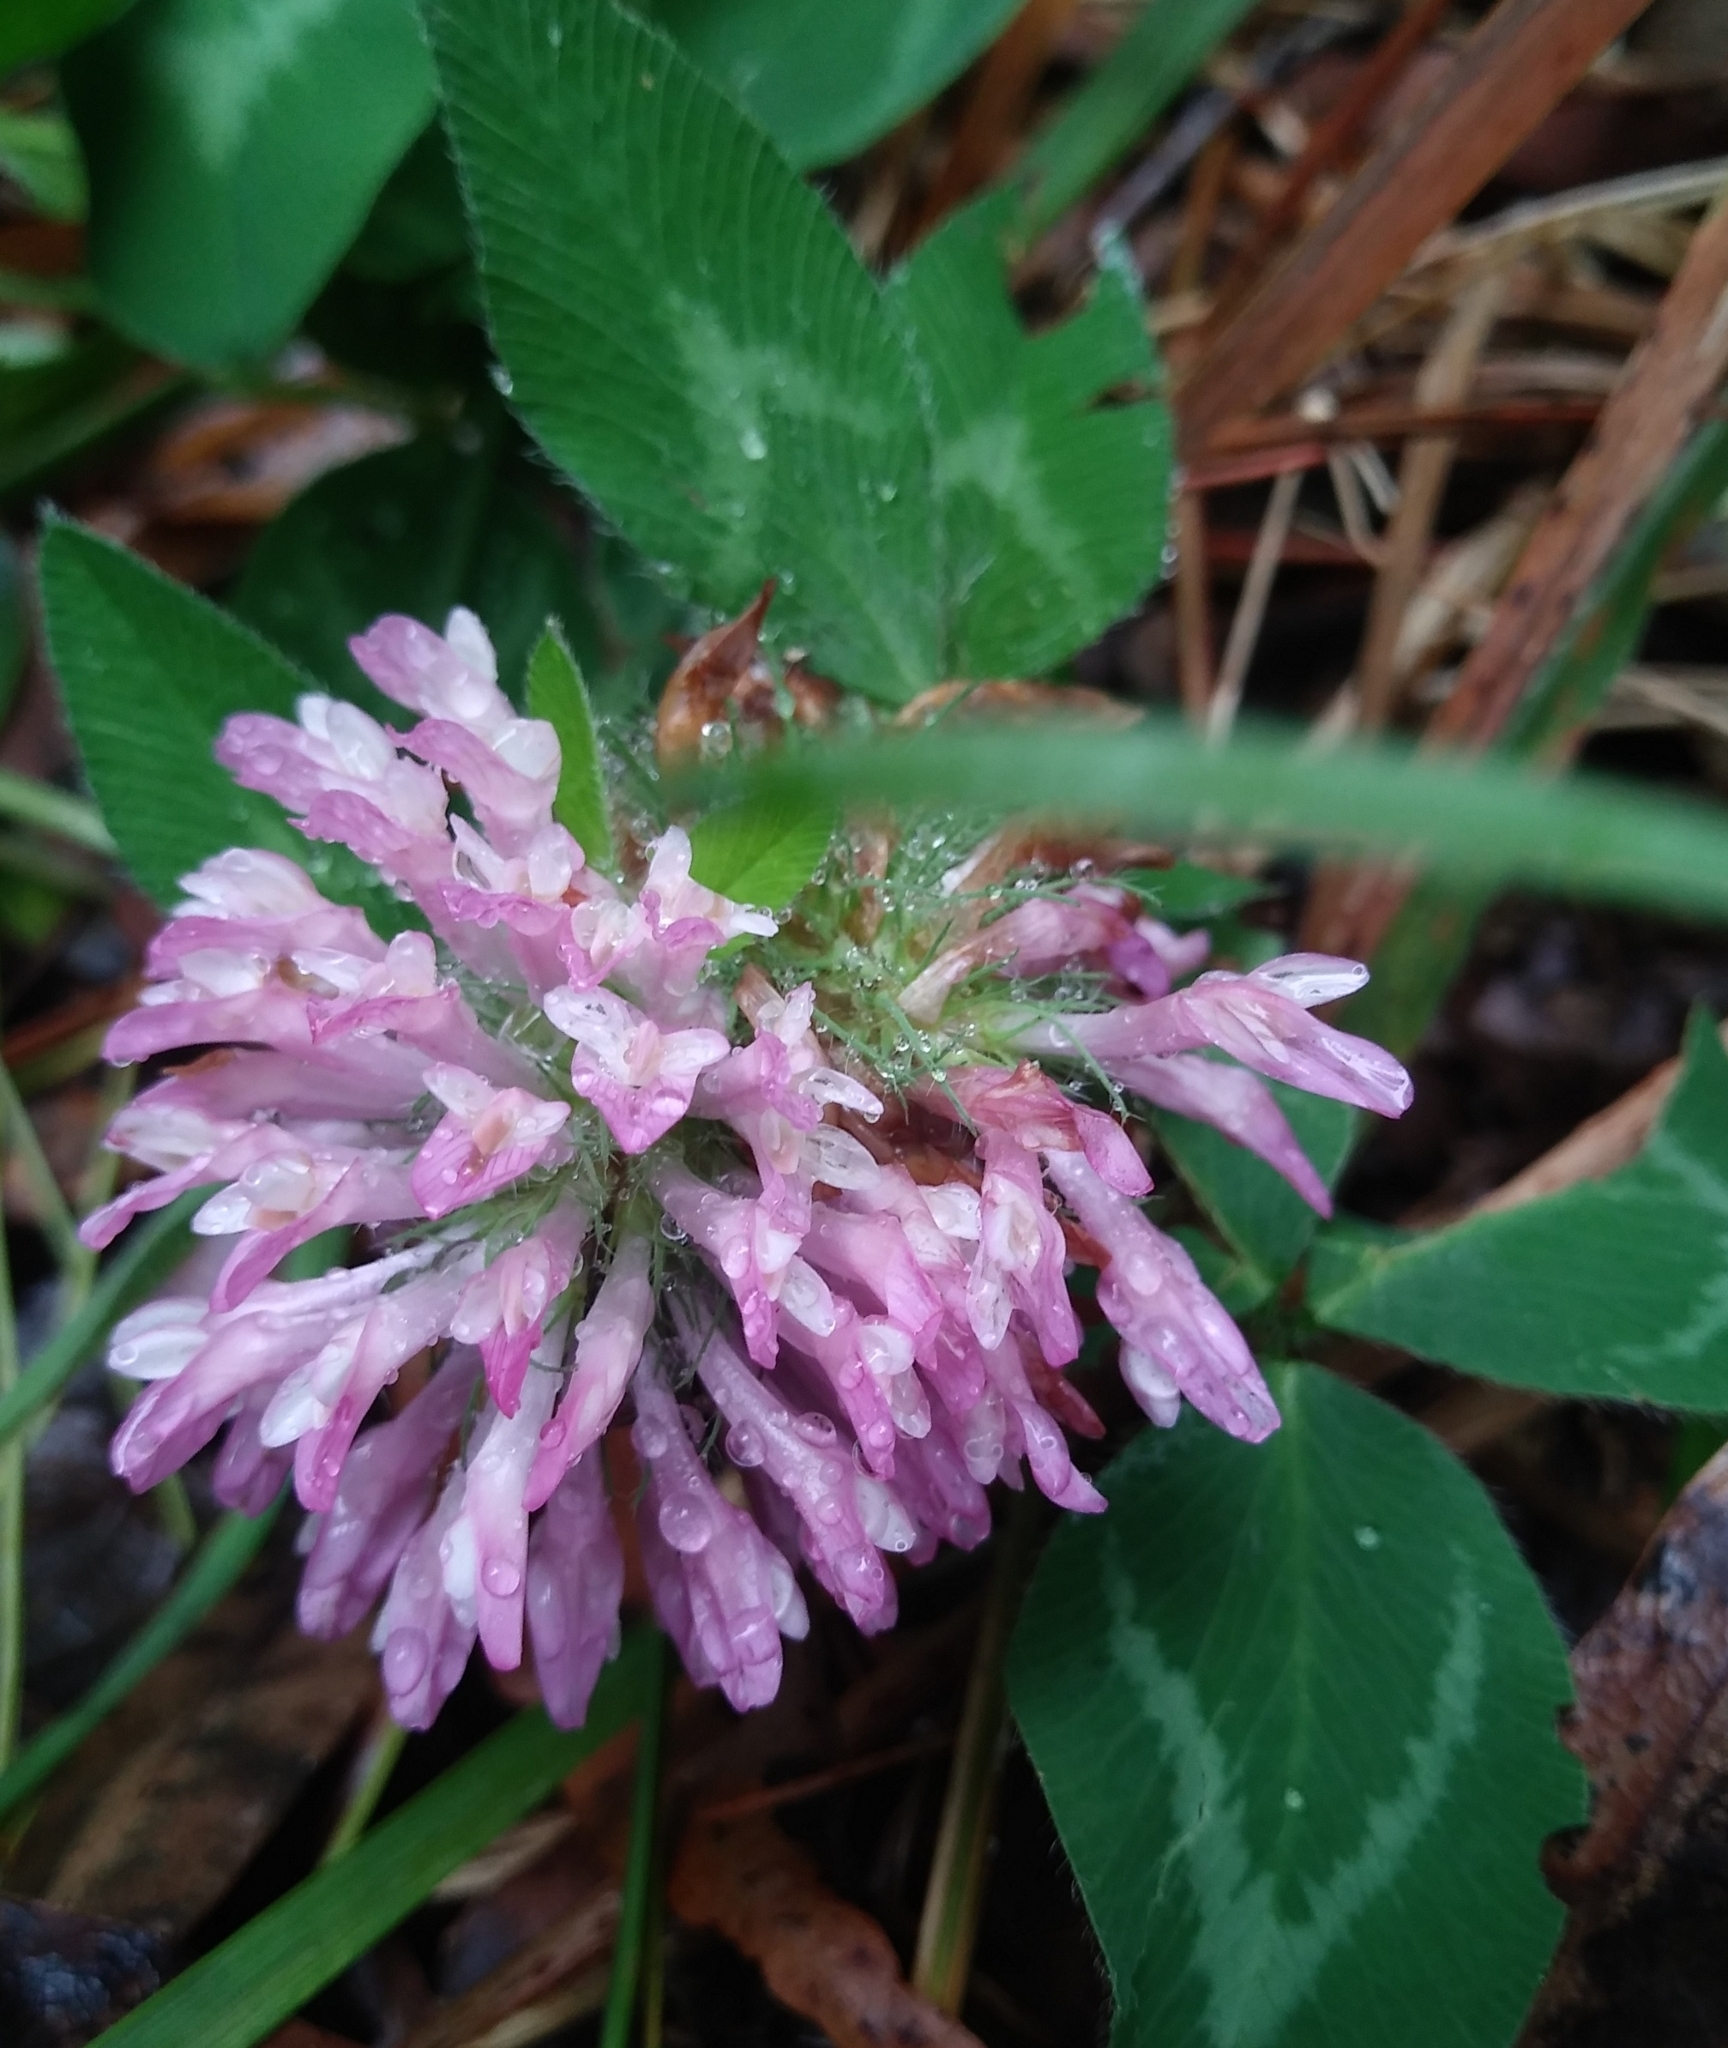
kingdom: Plantae
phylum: Tracheophyta
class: Magnoliopsida
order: Fabales
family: Fabaceae
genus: Trifolium
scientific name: Trifolium pratense
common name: Red clover
